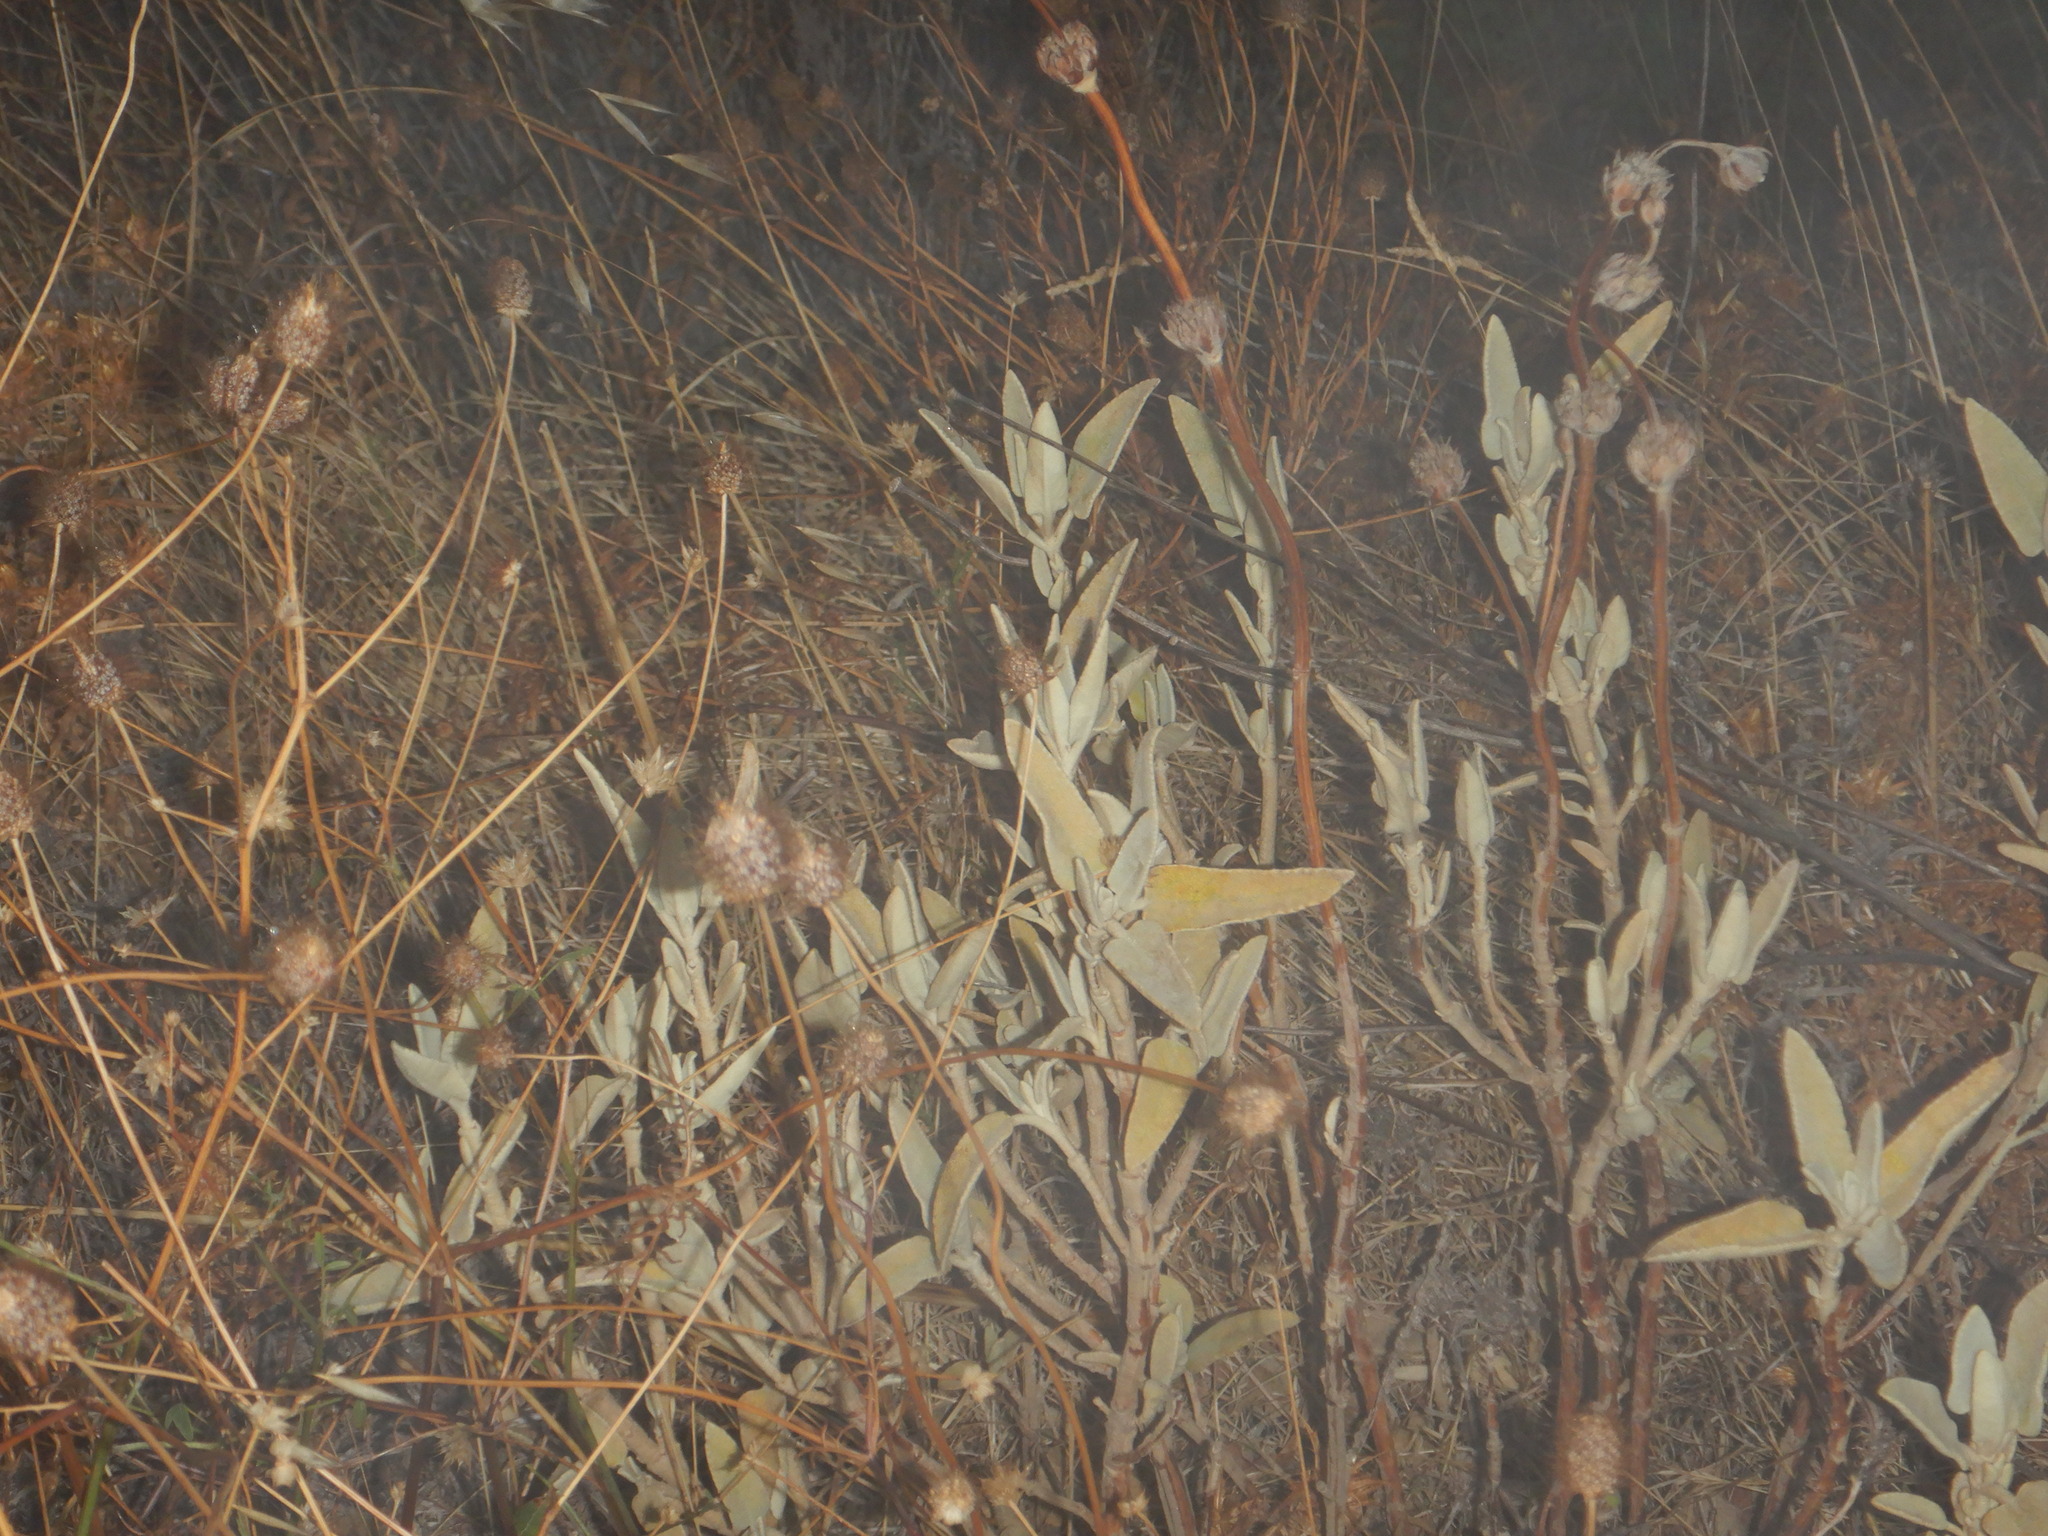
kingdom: Plantae
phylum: Tracheophyta
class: Magnoliopsida
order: Lamiales
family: Lamiaceae
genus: Phlomis
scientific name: Phlomis purpurea
